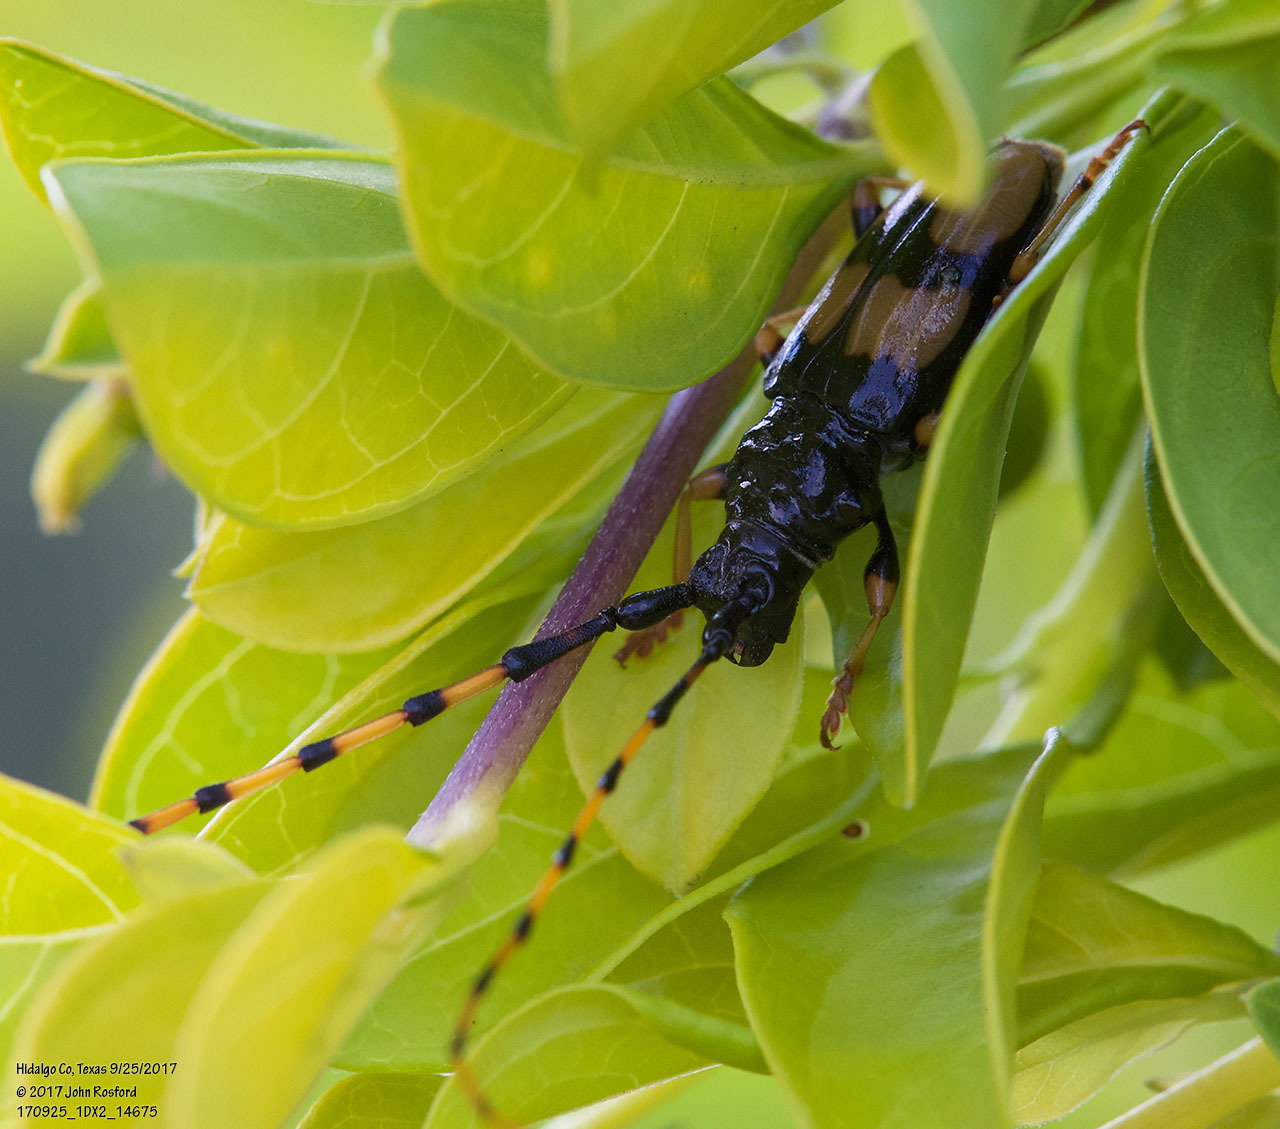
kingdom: Animalia
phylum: Arthropoda
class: Insecta
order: Coleoptera
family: Cerambycidae
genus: Trachyderes
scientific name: Trachyderes mandibularis
